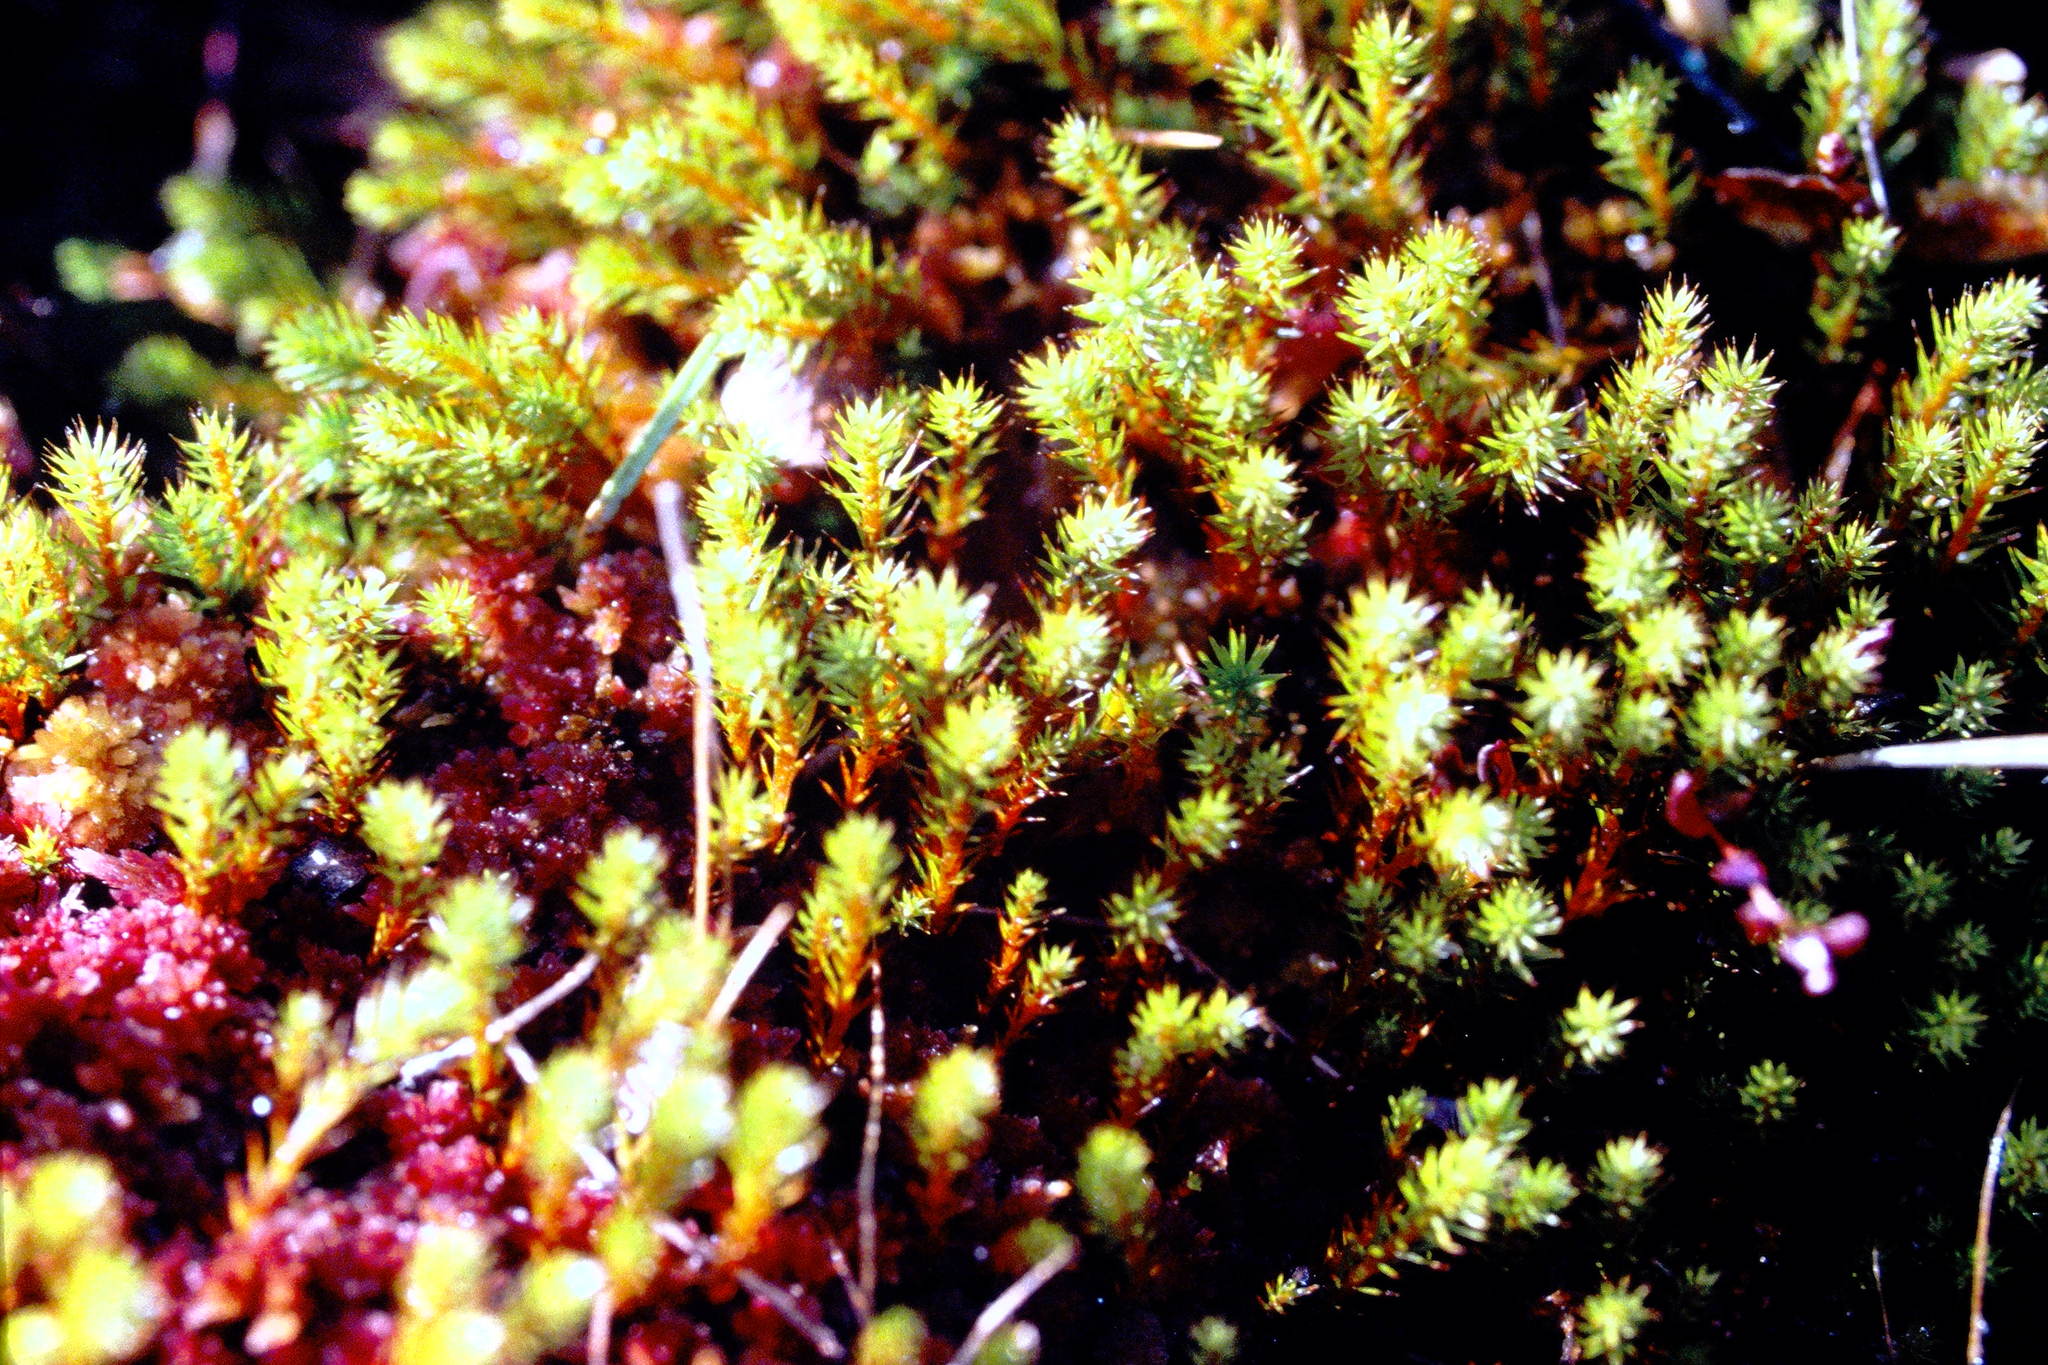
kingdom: Plantae
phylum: Bryophyta
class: Polytrichopsida
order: Polytrichales
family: Polytrichaceae
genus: Polytrichum
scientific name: Polytrichum strictum
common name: Bog haircap moss
